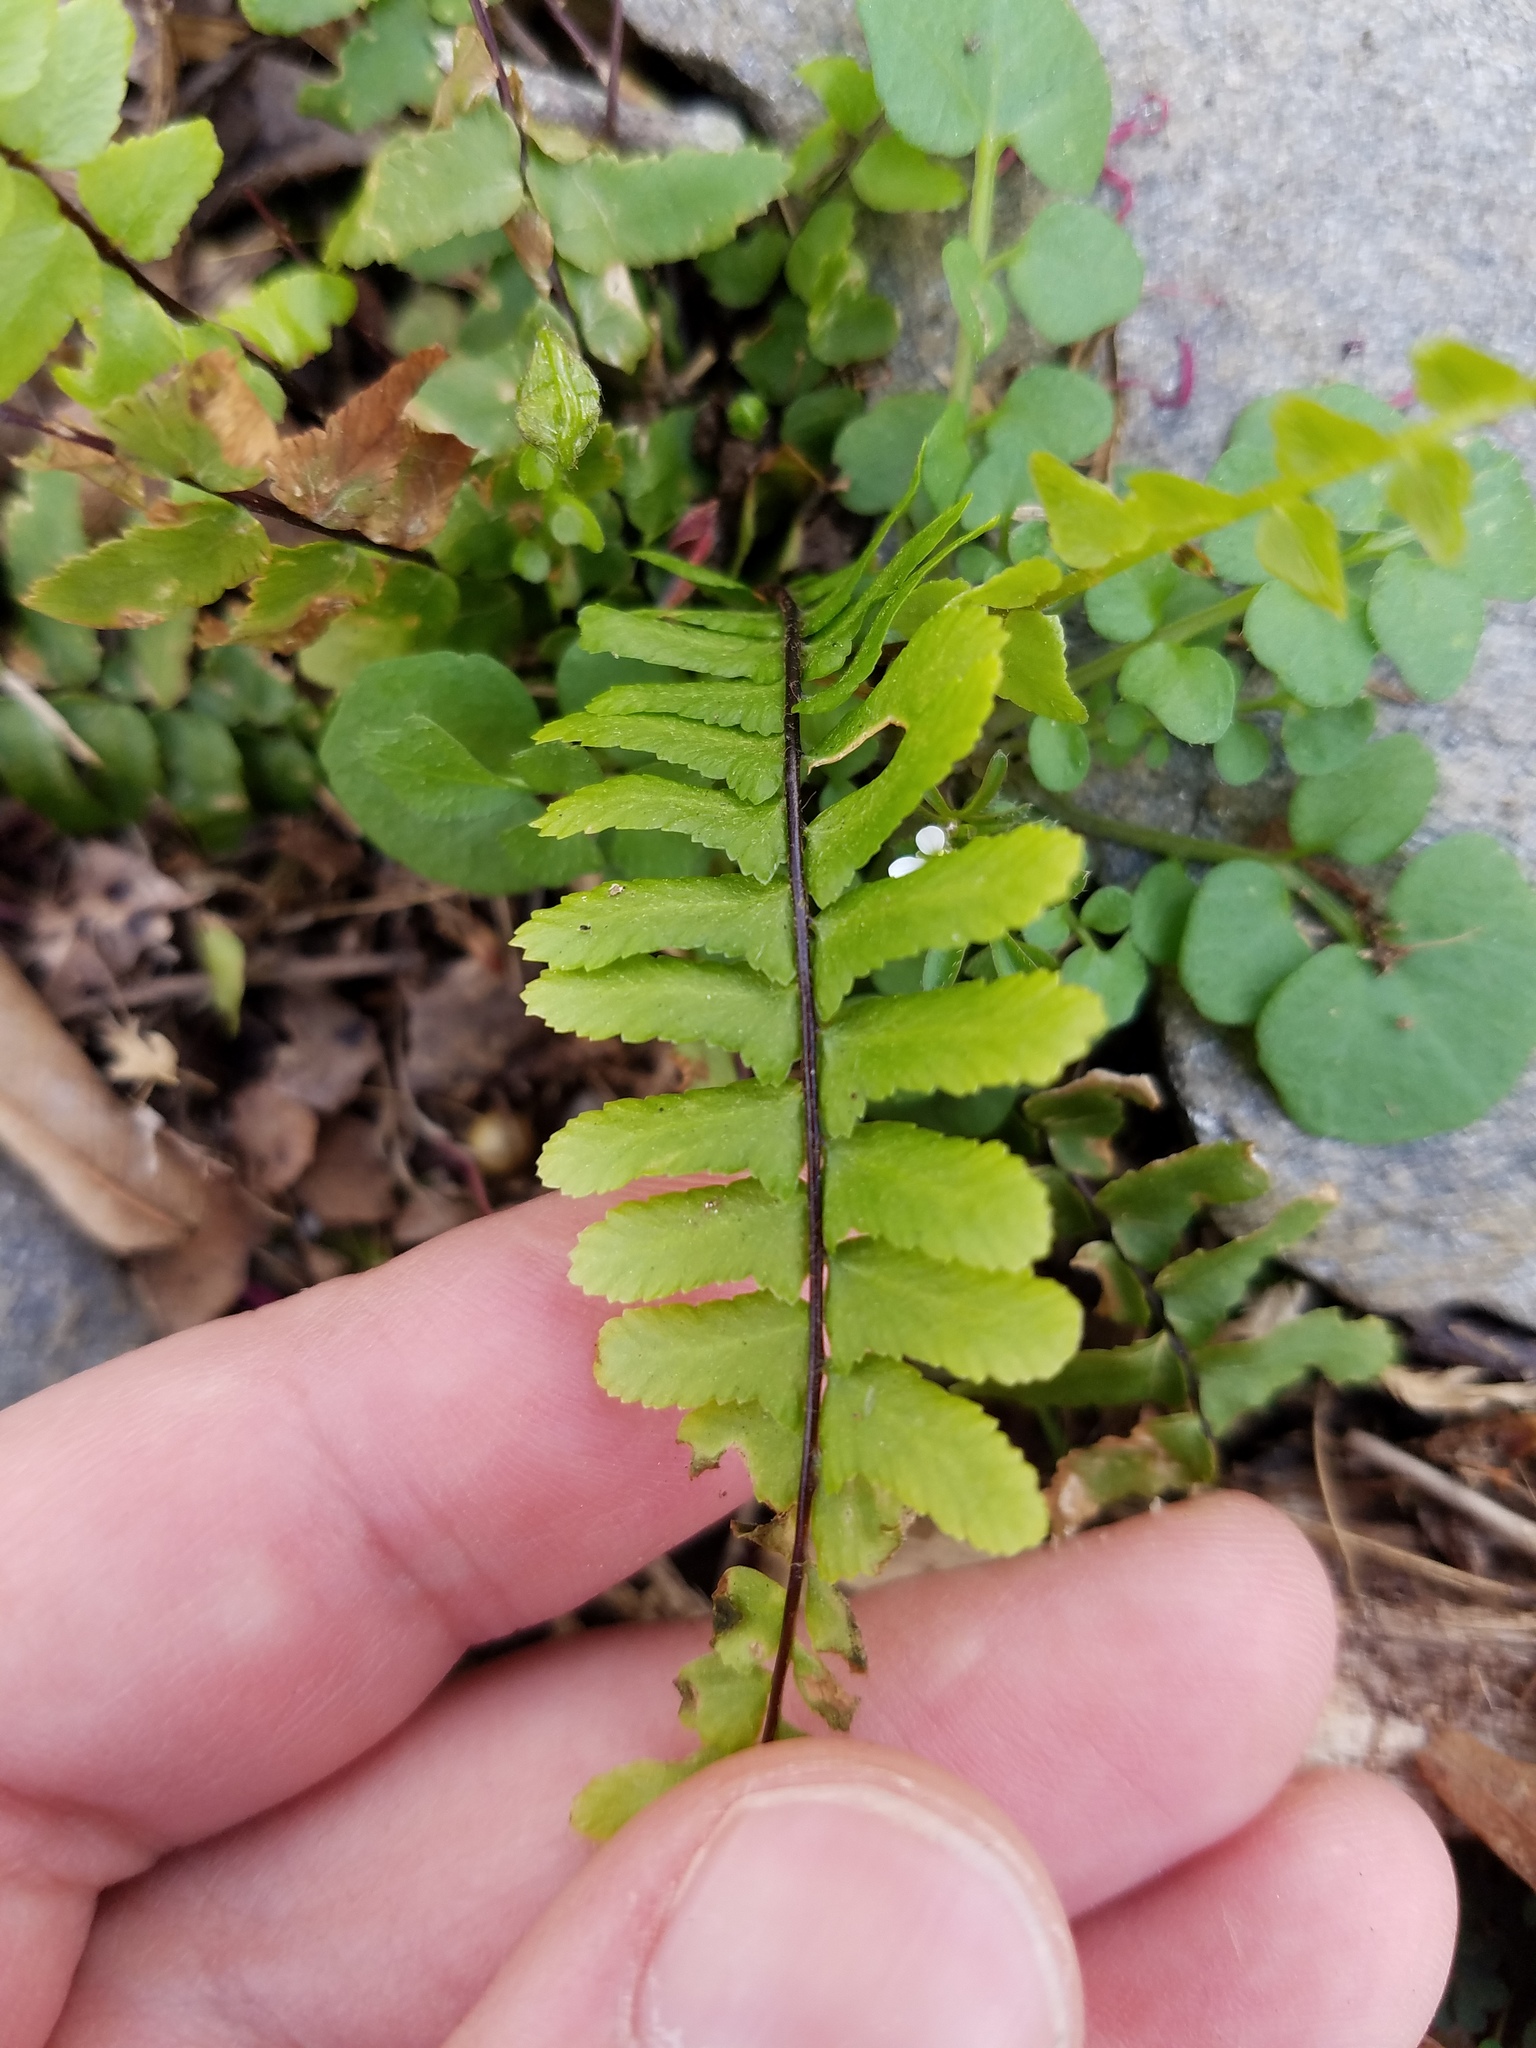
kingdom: Plantae
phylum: Tracheophyta
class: Polypodiopsida
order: Polypodiales
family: Aspleniaceae
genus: Asplenium
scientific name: Asplenium platyneuron
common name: Ebony spleenwort
